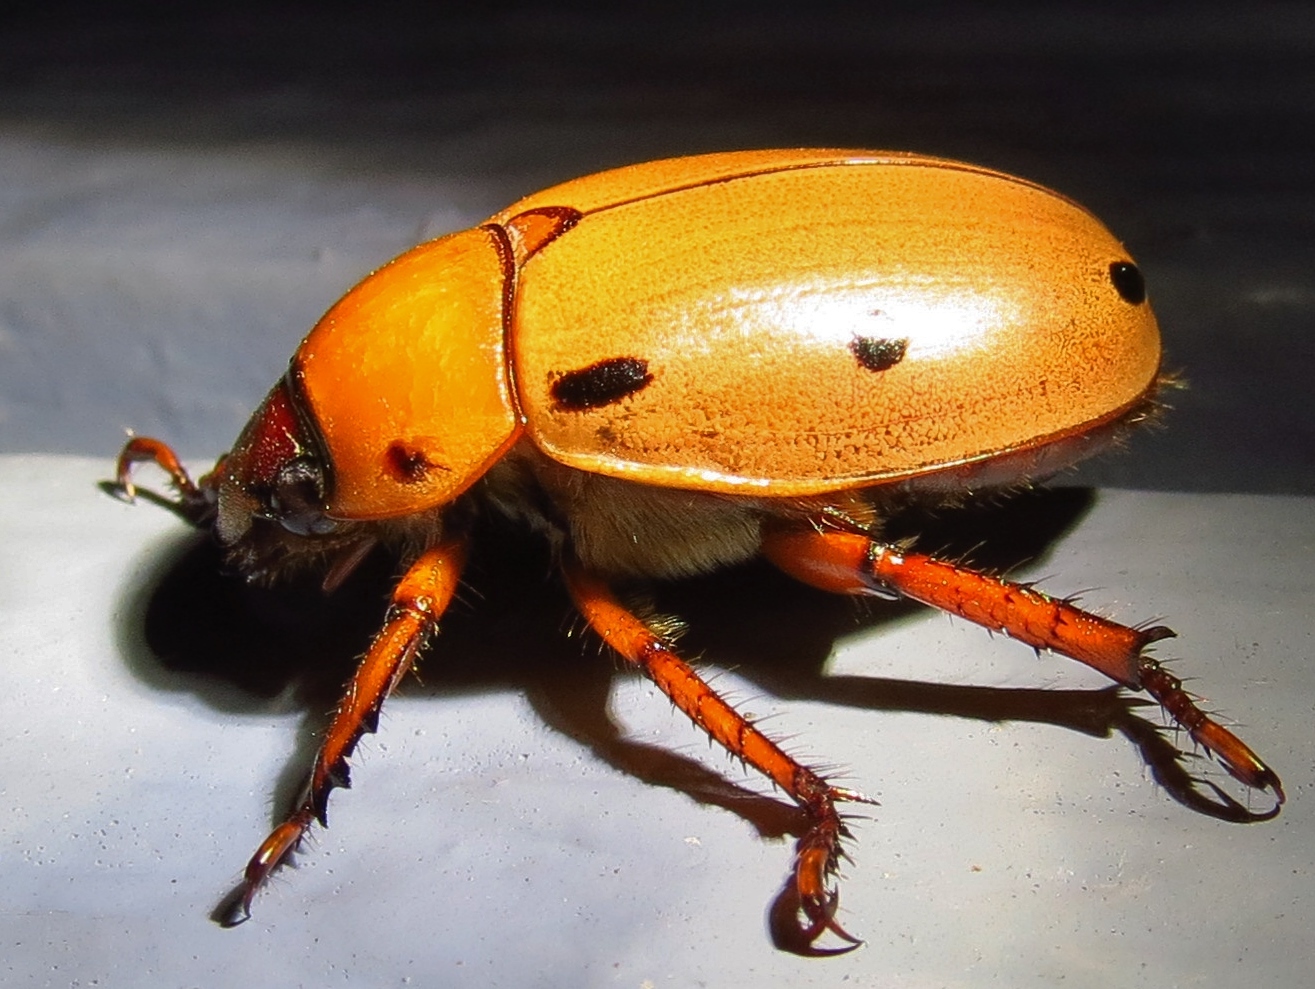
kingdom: Animalia
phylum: Arthropoda
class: Insecta
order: Coleoptera
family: Scarabaeidae
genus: Pelidnota
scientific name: Pelidnota punctata
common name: Grapevine beetle
